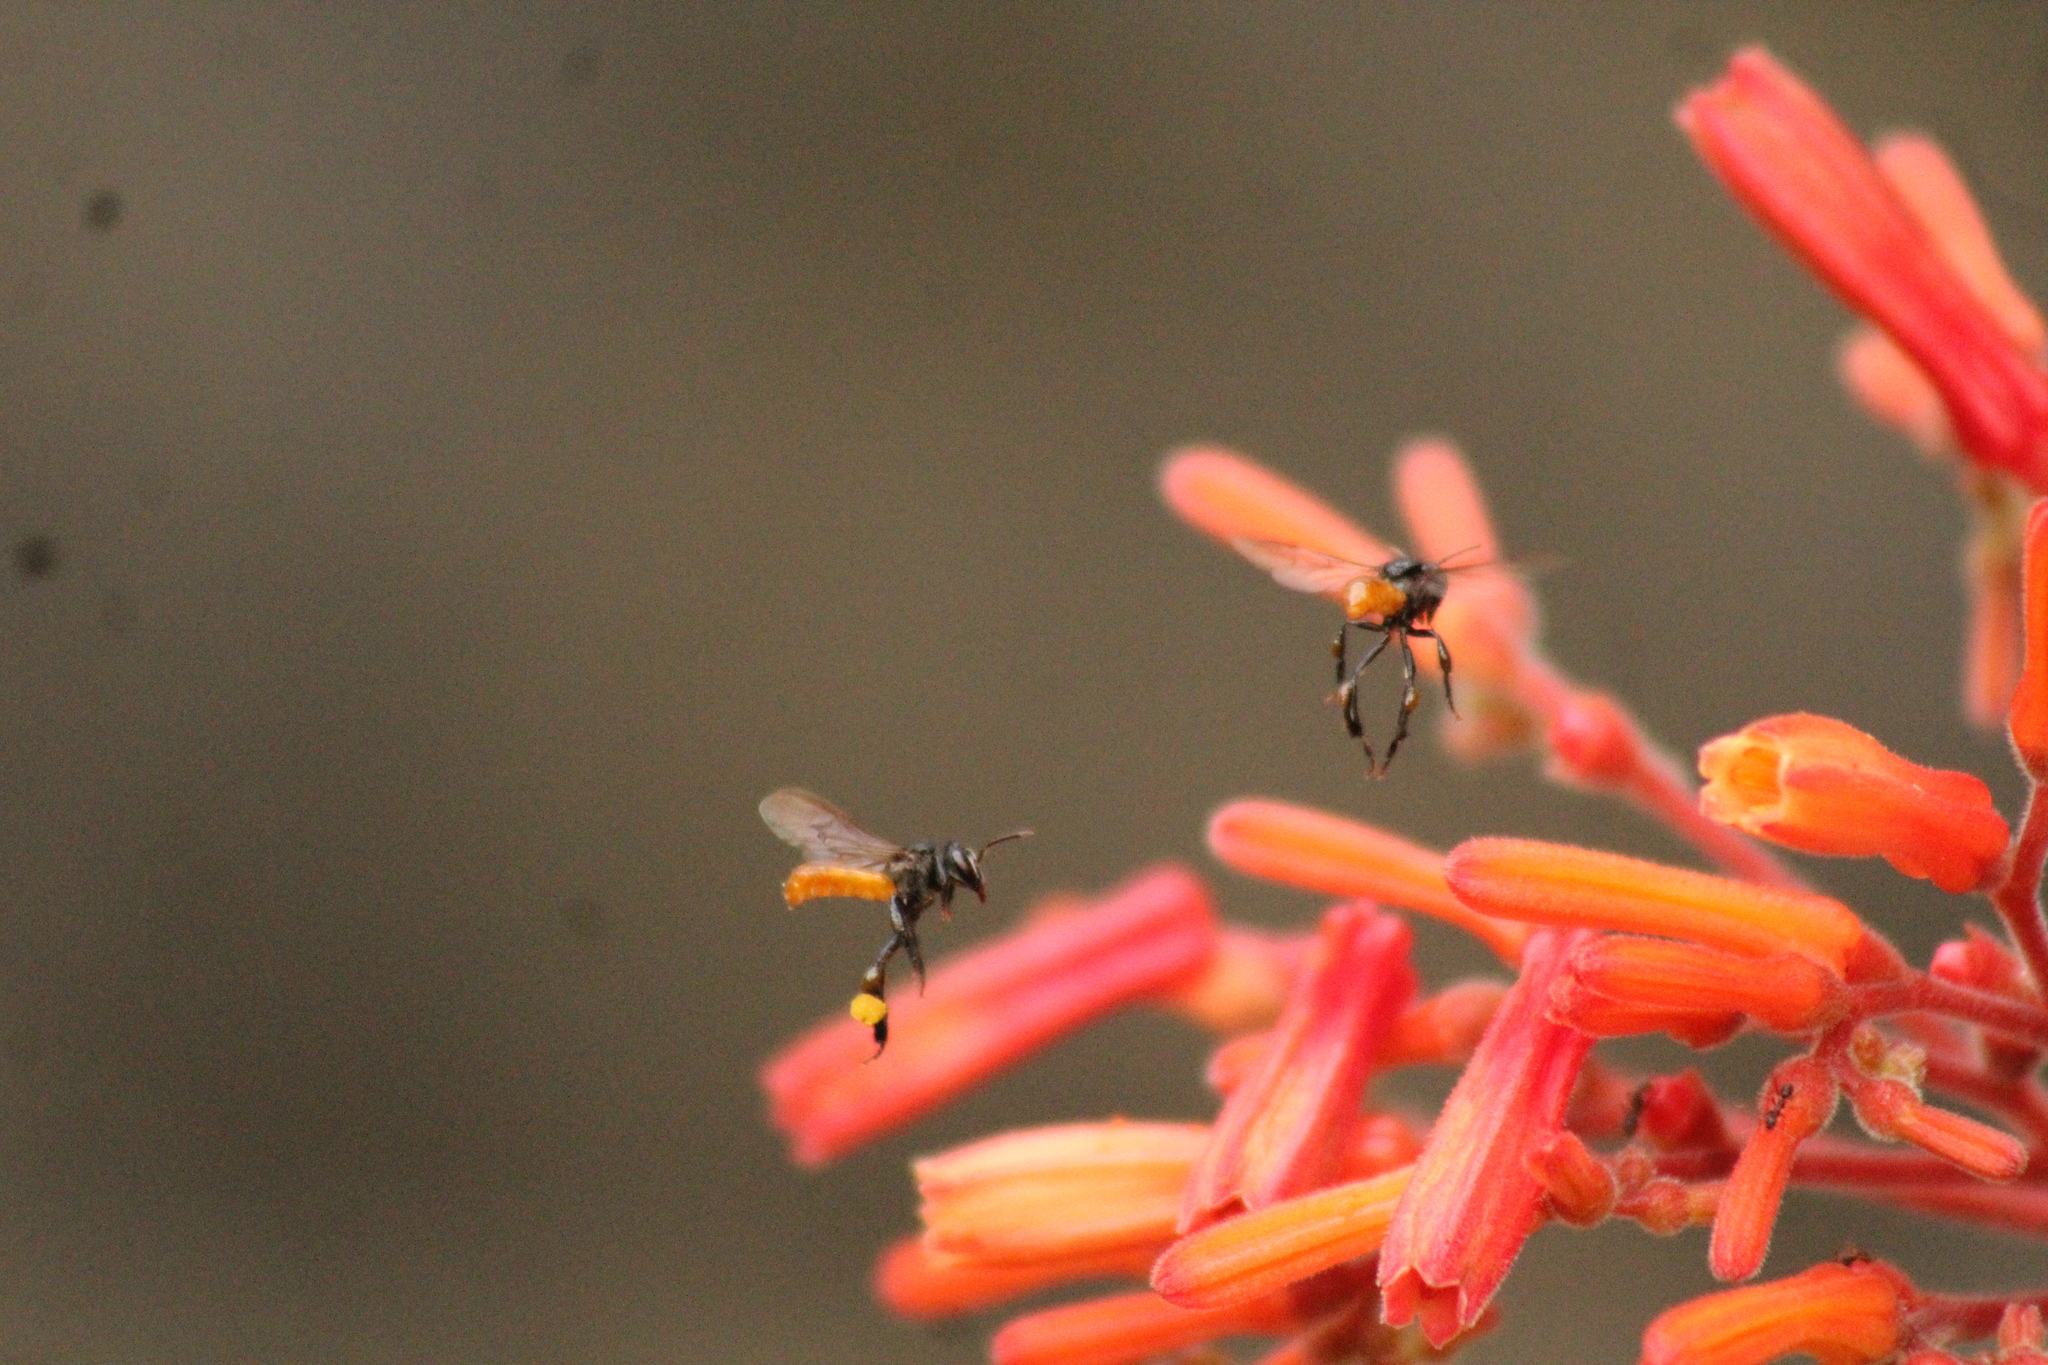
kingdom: Animalia
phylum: Arthropoda
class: Insecta
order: Hymenoptera
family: Apidae
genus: Trigona
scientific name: Trigona fulviventris
